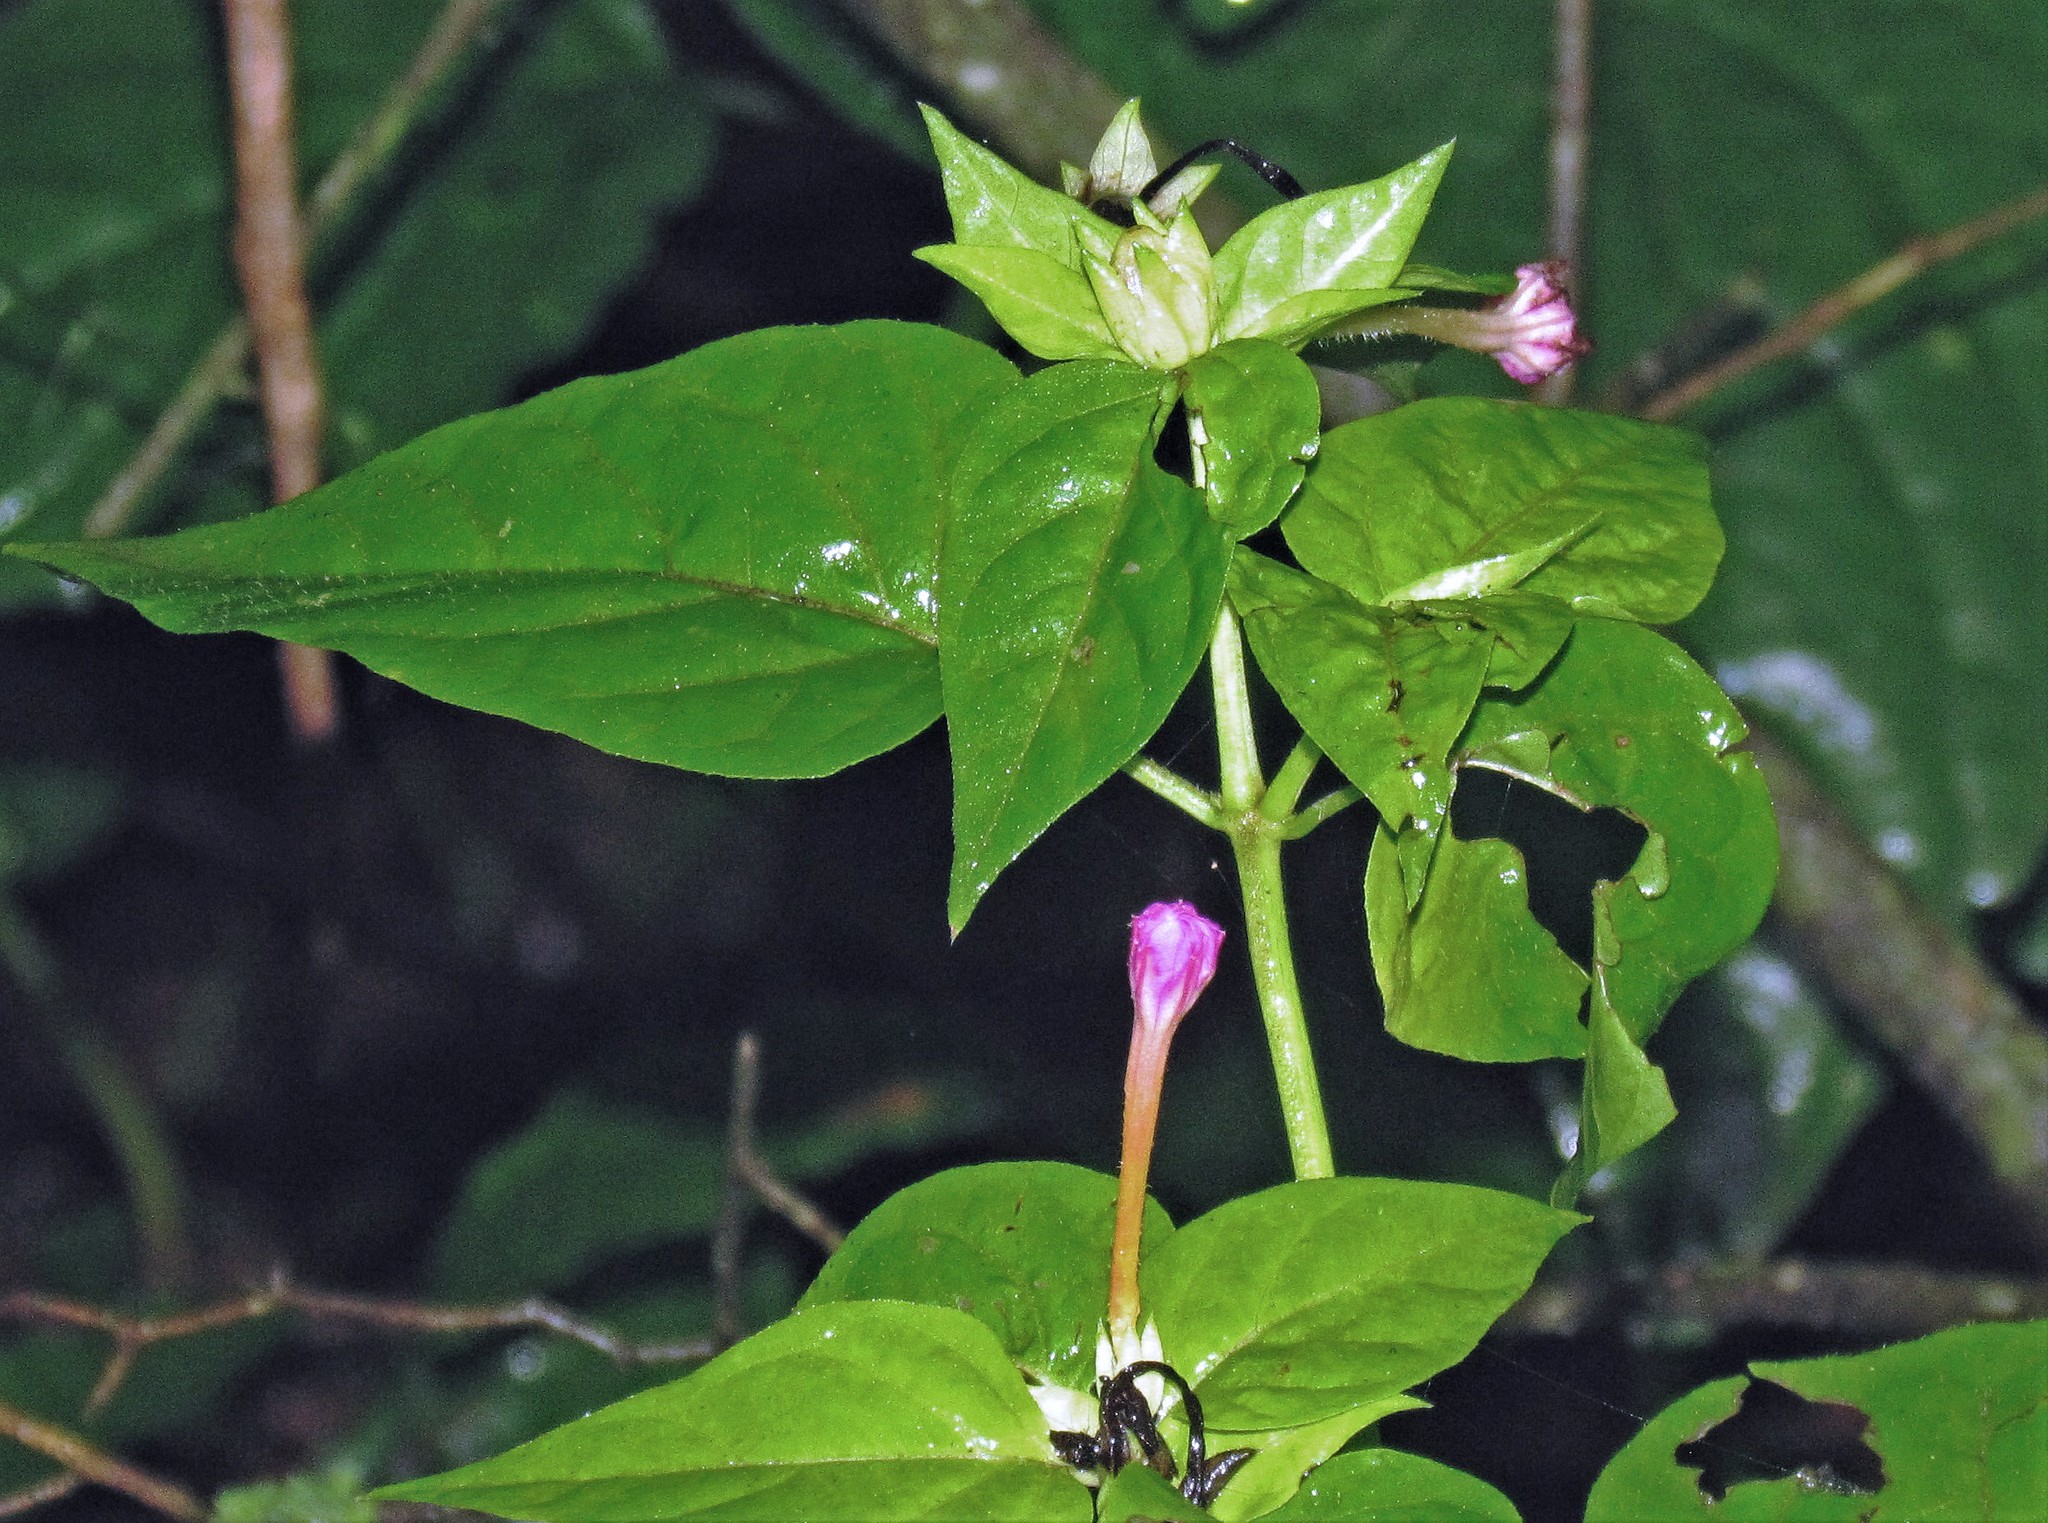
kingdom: Plantae
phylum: Tracheophyta
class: Magnoliopsida
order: Caryophyllales
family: Nyctaginaceae
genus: Mirabilis
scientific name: Mirabilis jalapa
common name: Marvel-of-peru
